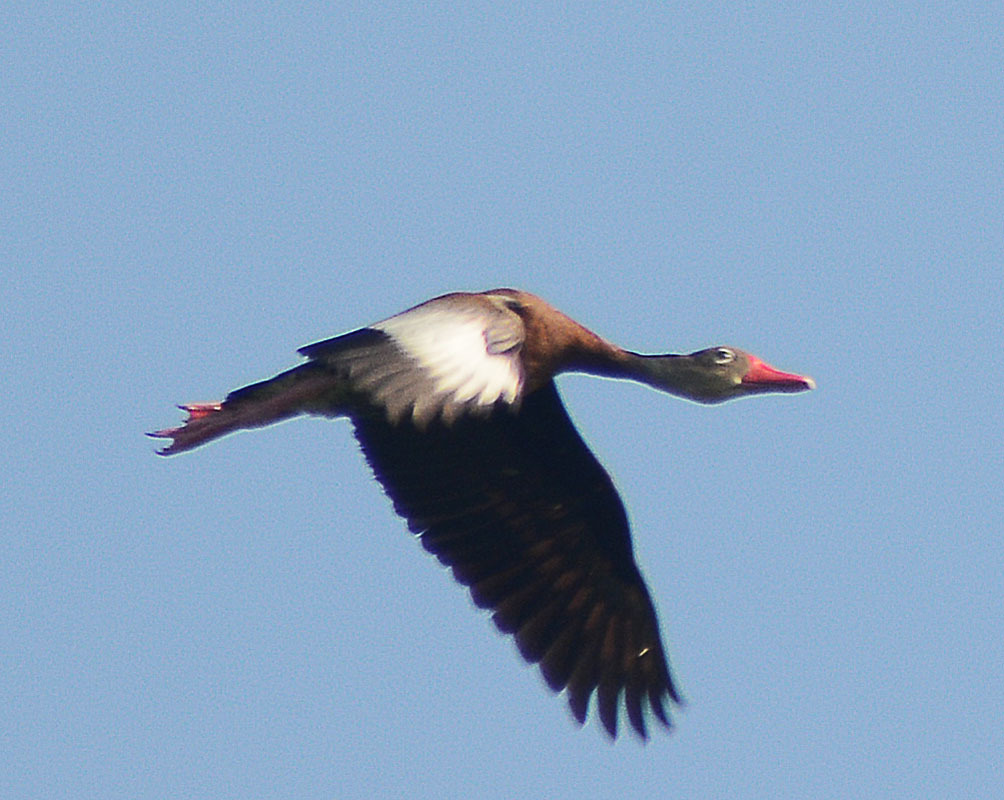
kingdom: Animalia
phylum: Chordata
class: Aves
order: Anseriformes
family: Anatidae
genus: Dendrocygna
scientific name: Dendrocygna autumnalis
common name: Black-bellied whistling duck
